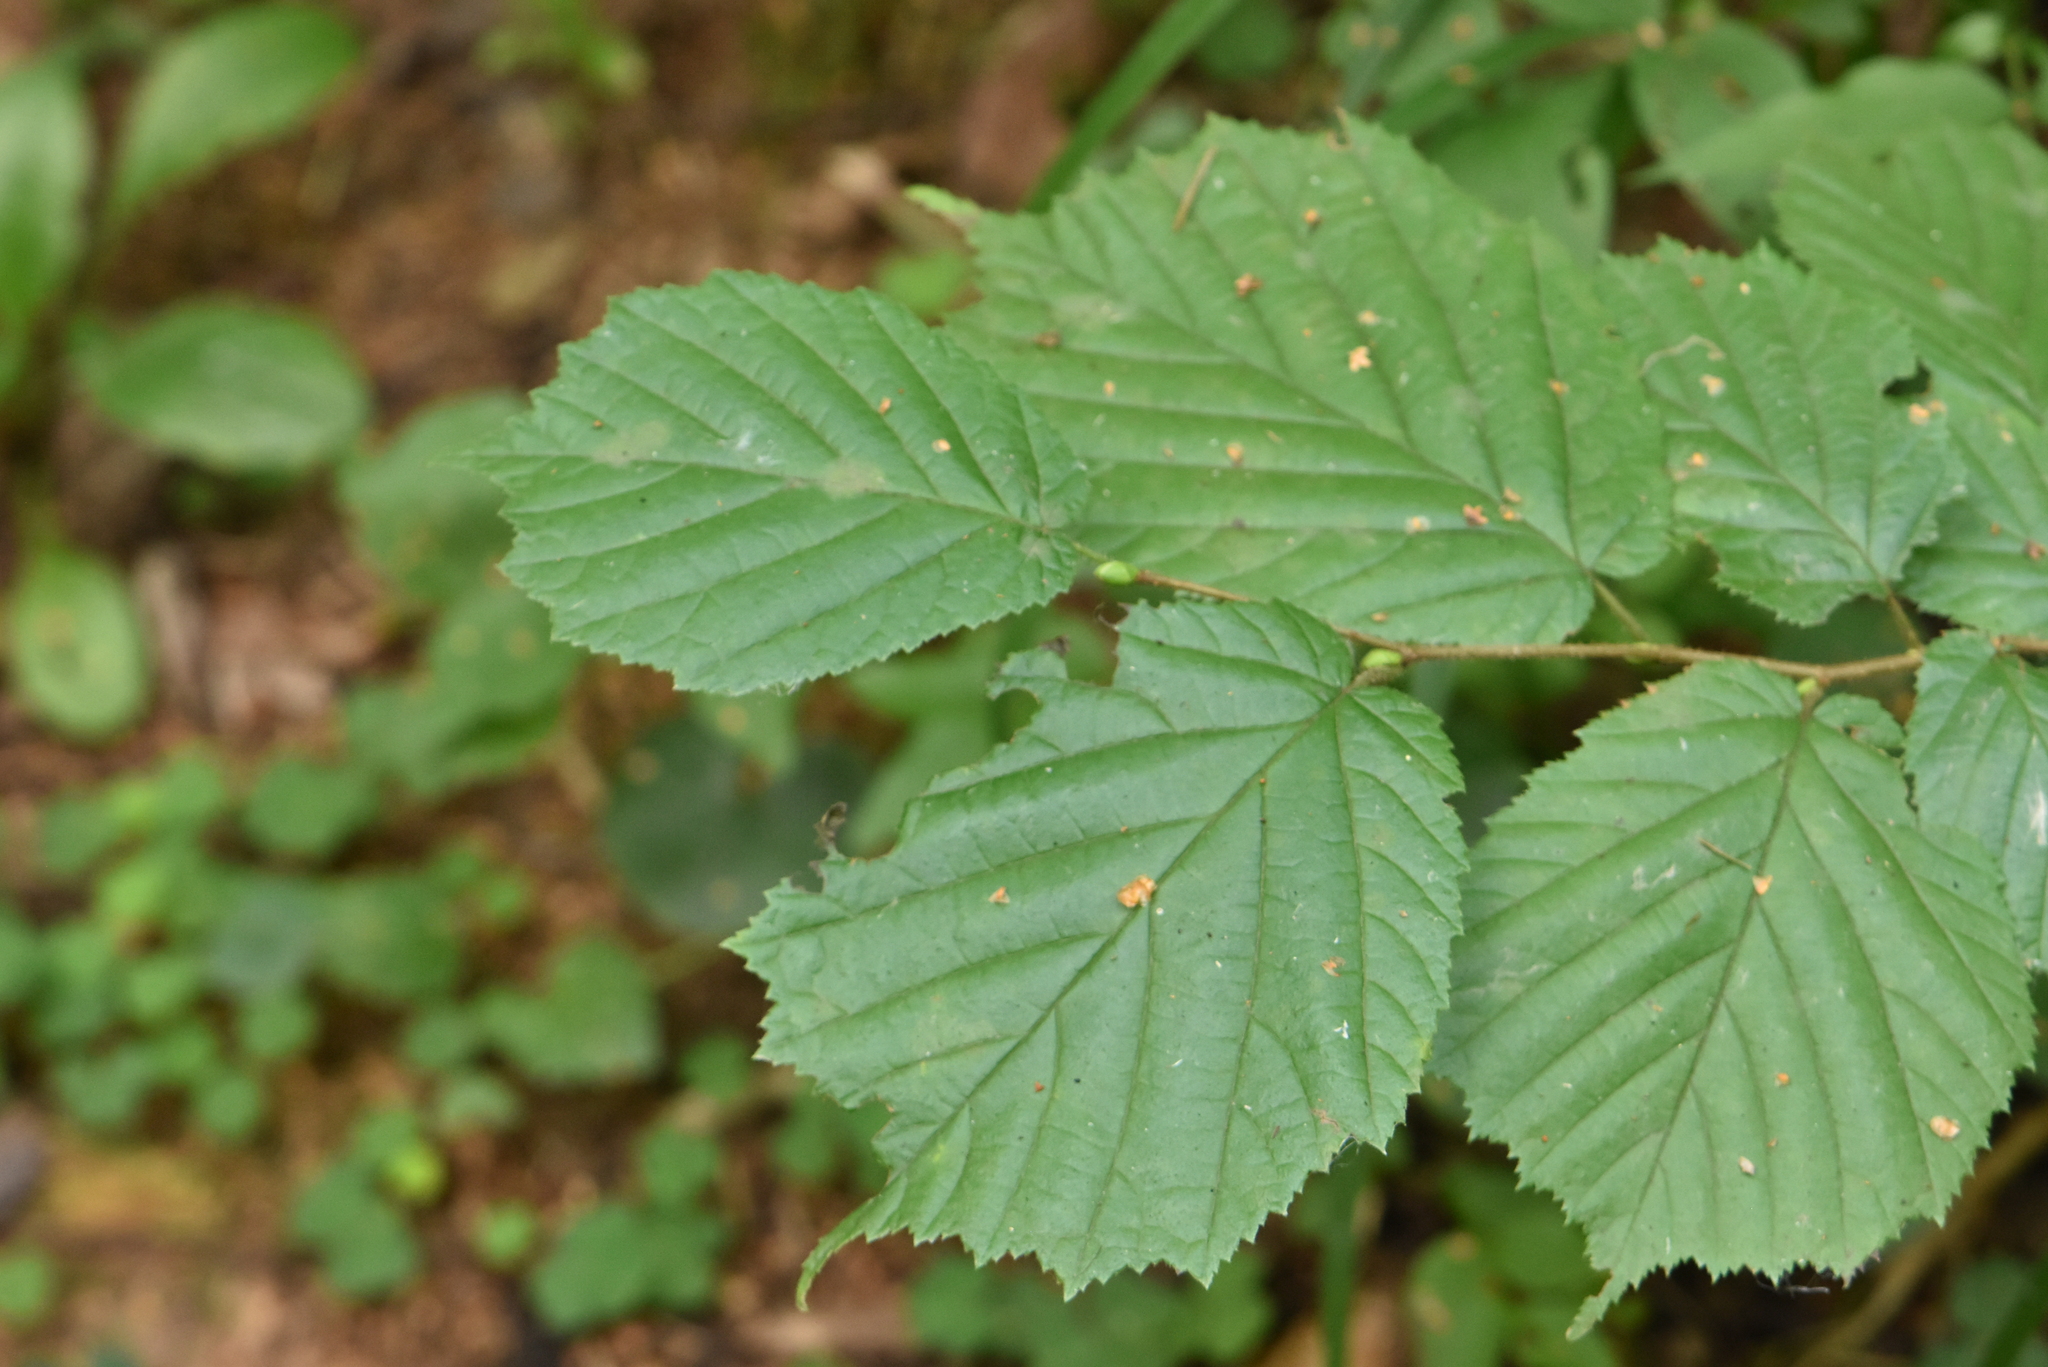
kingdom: Plantae
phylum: Tracheophyta
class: Magnoliopsida
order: Fagales
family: Betulaceae
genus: Corylus
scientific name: Corylus avellana
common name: European hazel
